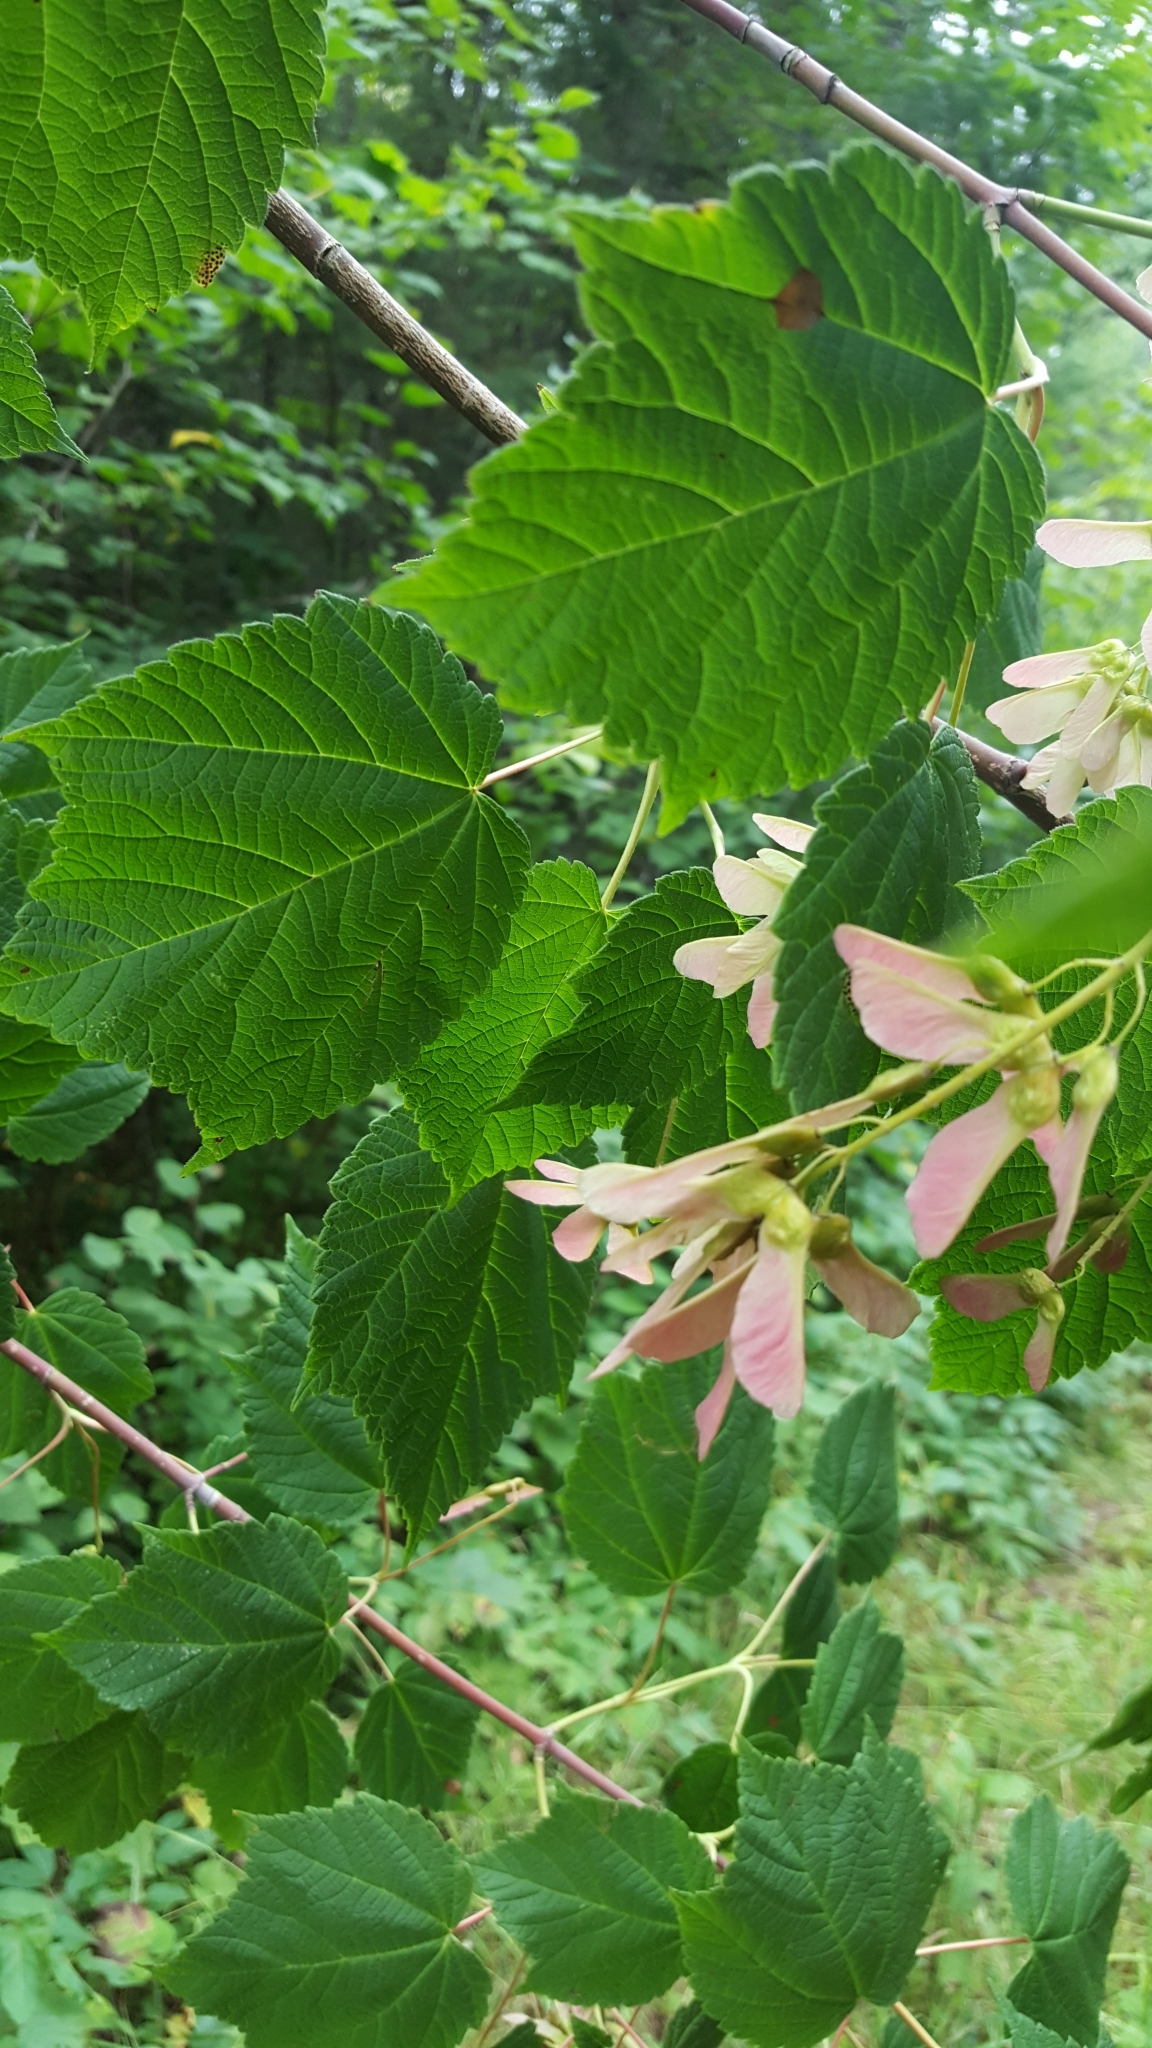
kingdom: Plantae
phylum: Tracheophyta
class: Magnoliopsida
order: Sapindales
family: Sapindaceae
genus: Acer
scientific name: Acer spicatum
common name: Mountain maple
